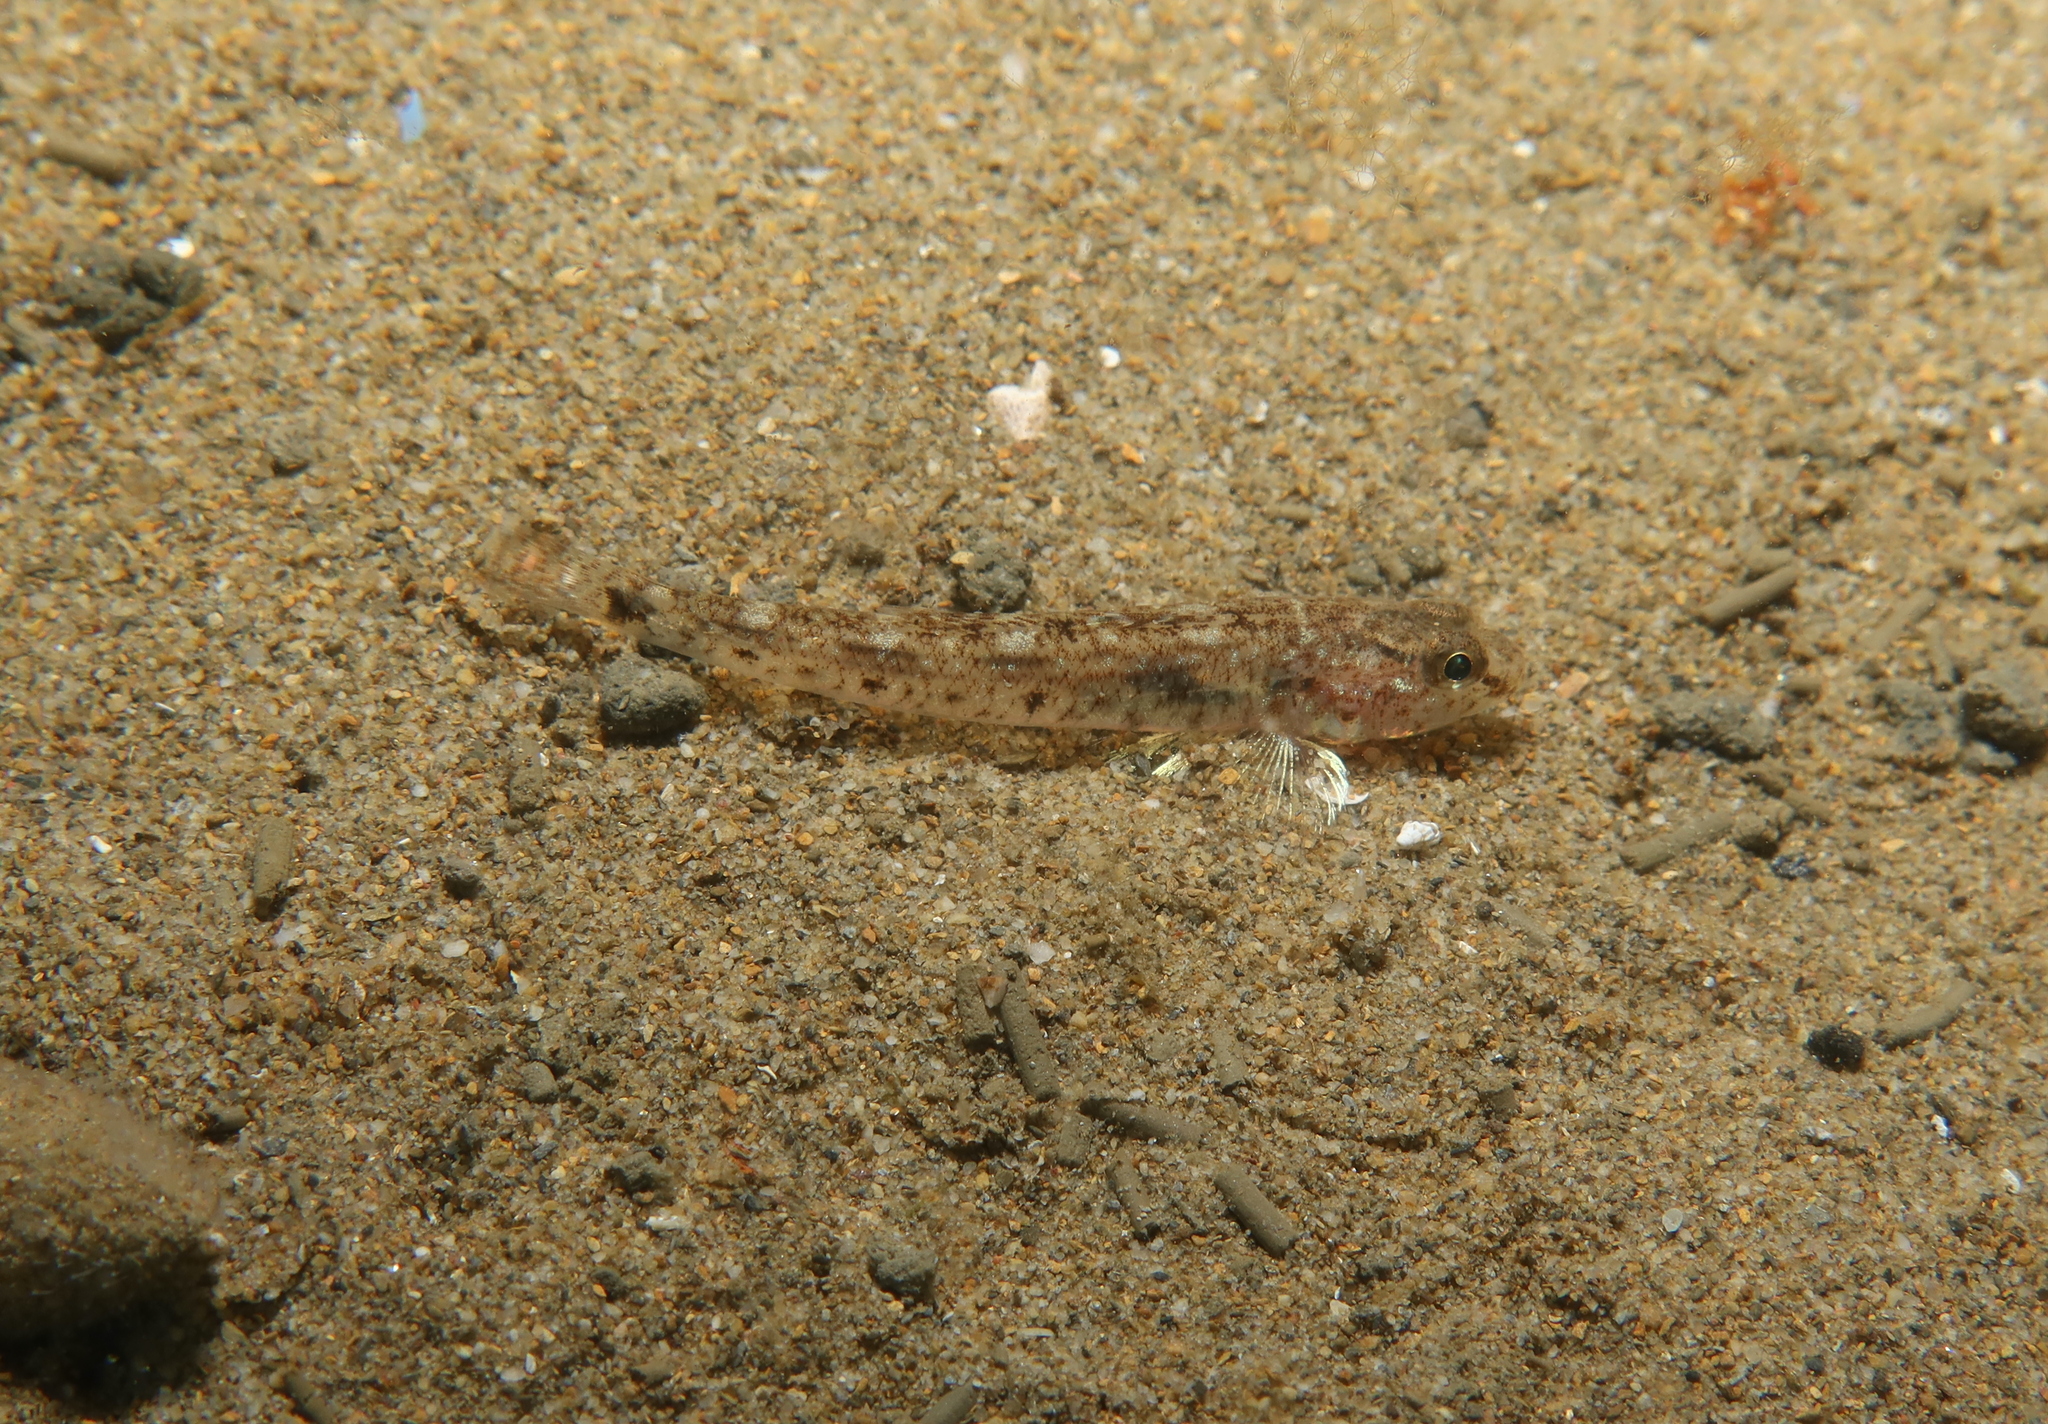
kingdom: Animalia
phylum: Chordata
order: Perciformes
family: Gobiidae
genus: Pomatoschistus
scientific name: Pomatoschistus minutus
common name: Sand goby
